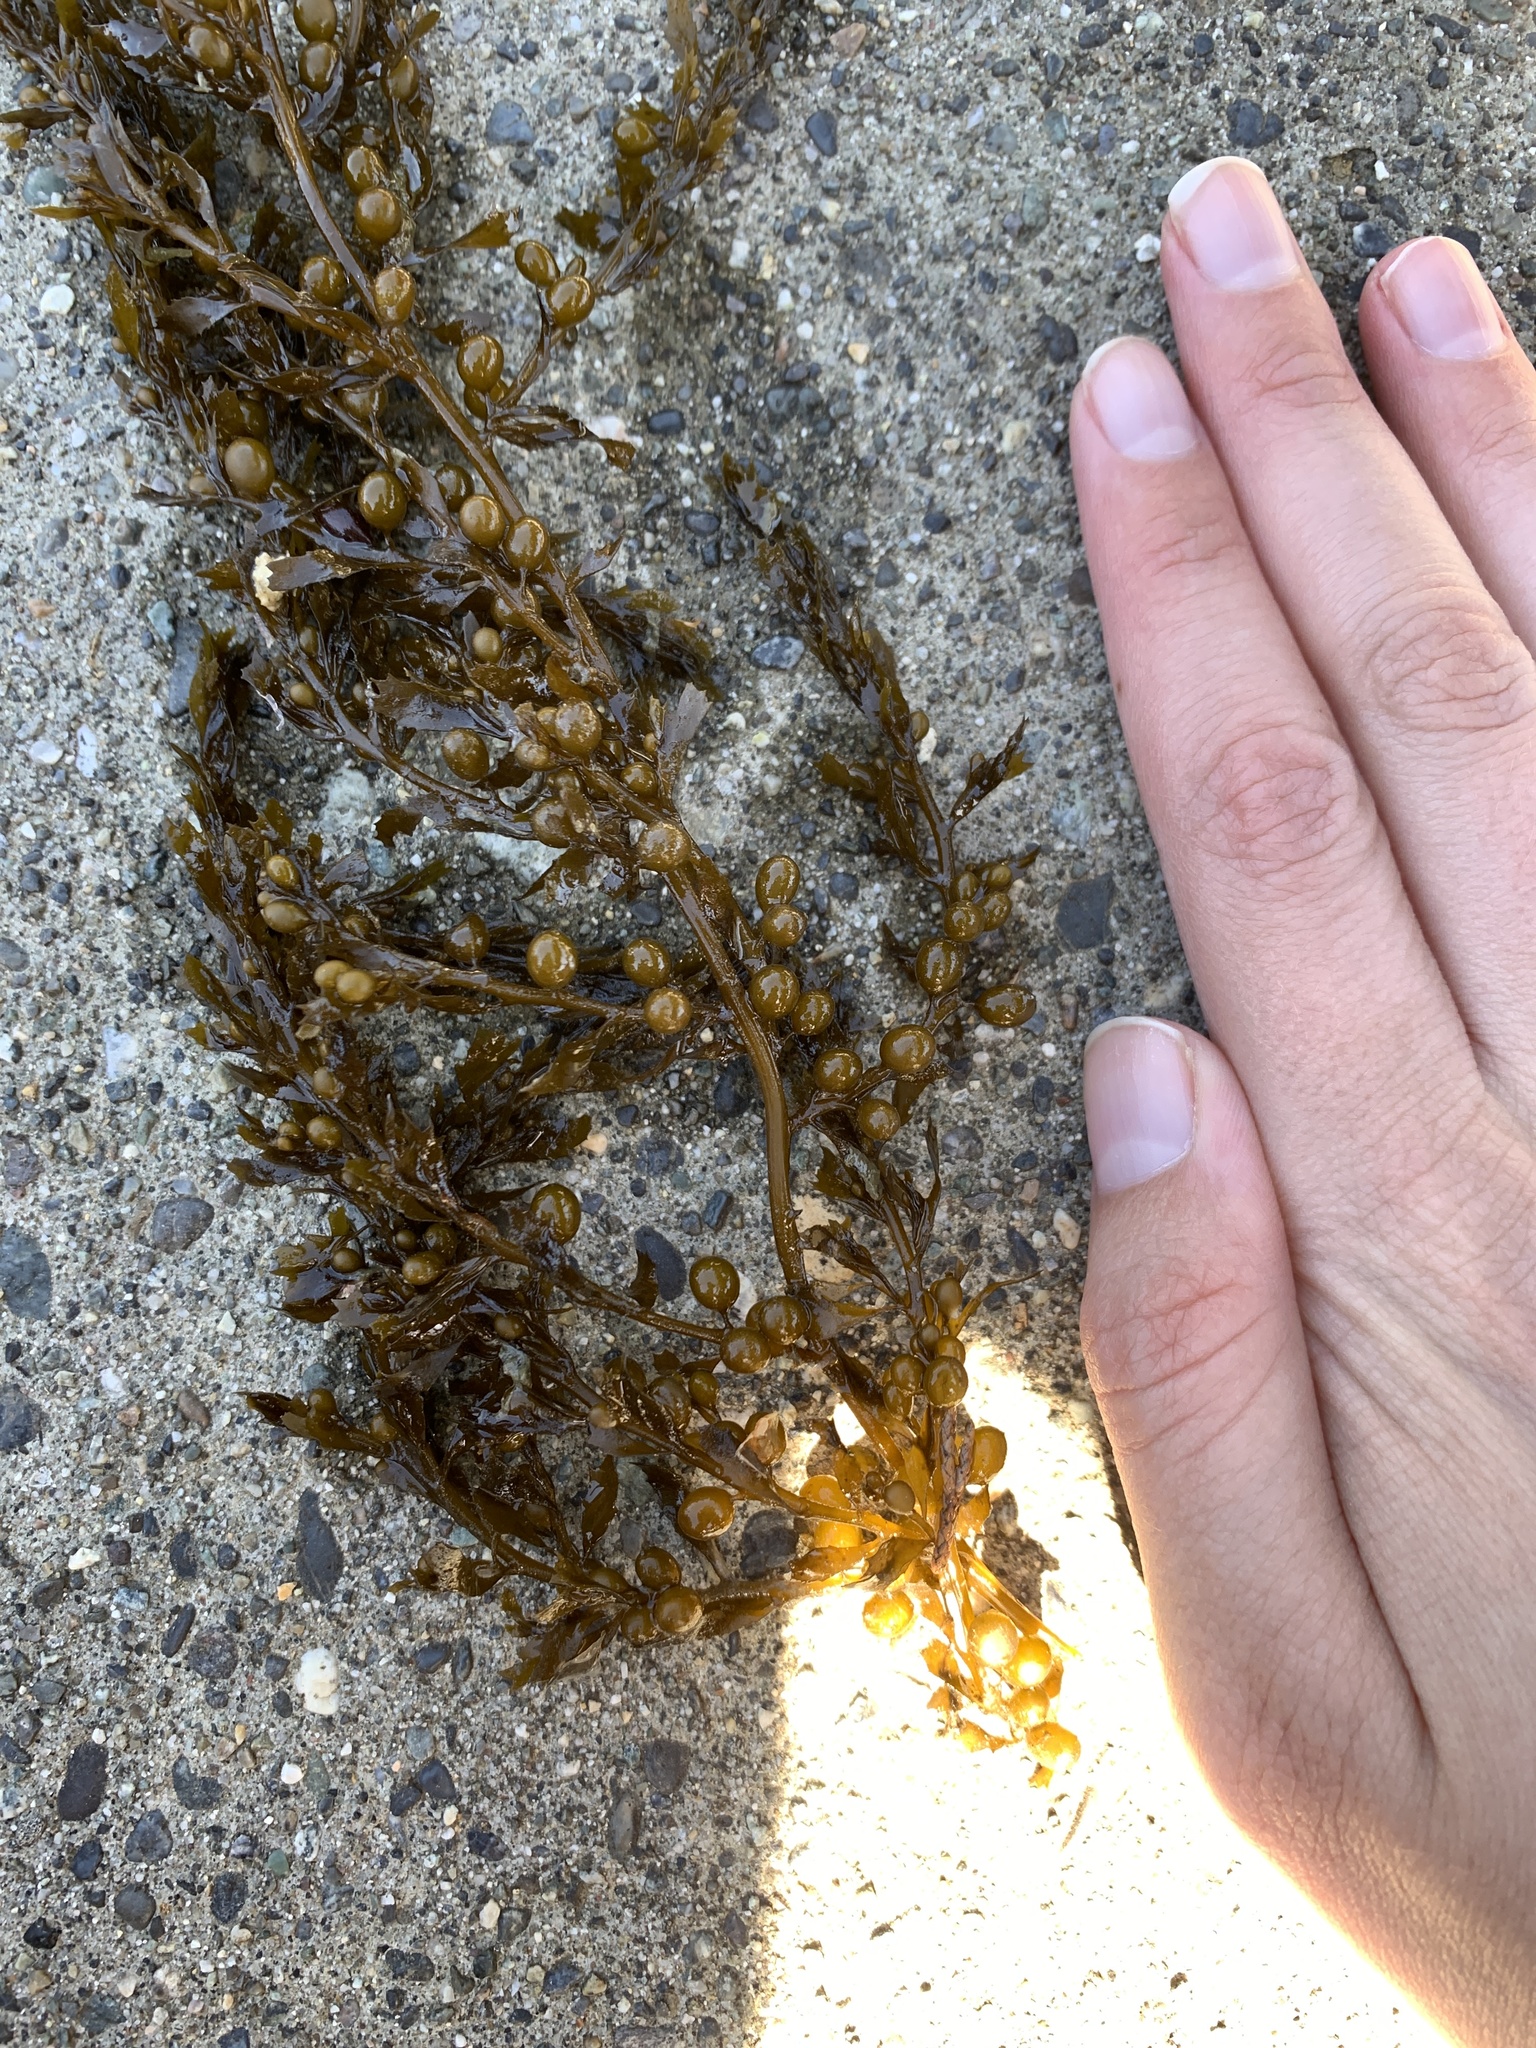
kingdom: Chromista
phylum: Ochrophyta
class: Phaeophyceae
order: Fucales
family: Sargassaceae
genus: Sargassum
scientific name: Sargassum muticum
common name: Japweed
